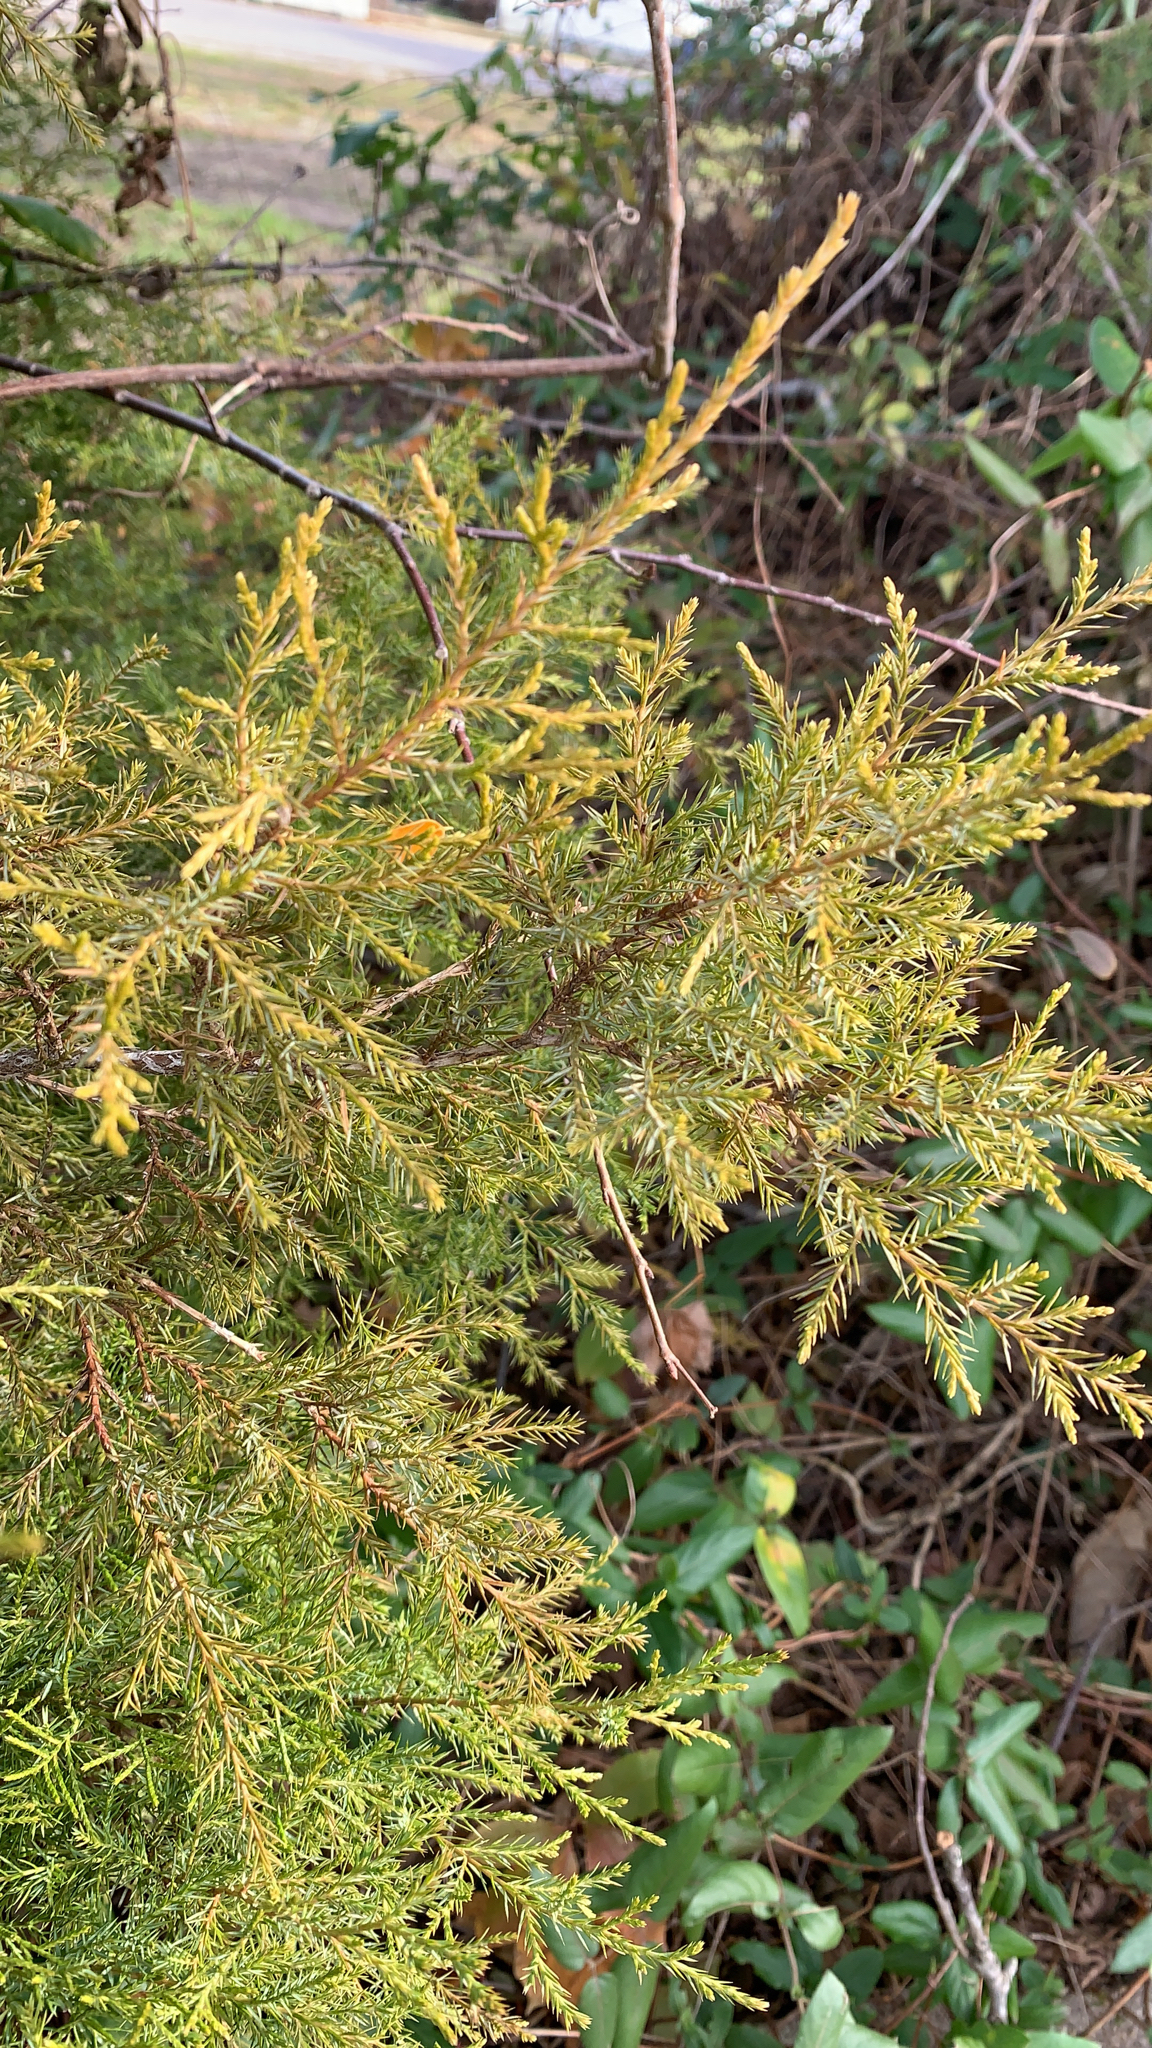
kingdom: Plantae
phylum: Tracheophyta
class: Pinopsida
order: Pinales
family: Cupressaceae
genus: Juniperus
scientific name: Juniperus virginiana
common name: Red juniper
